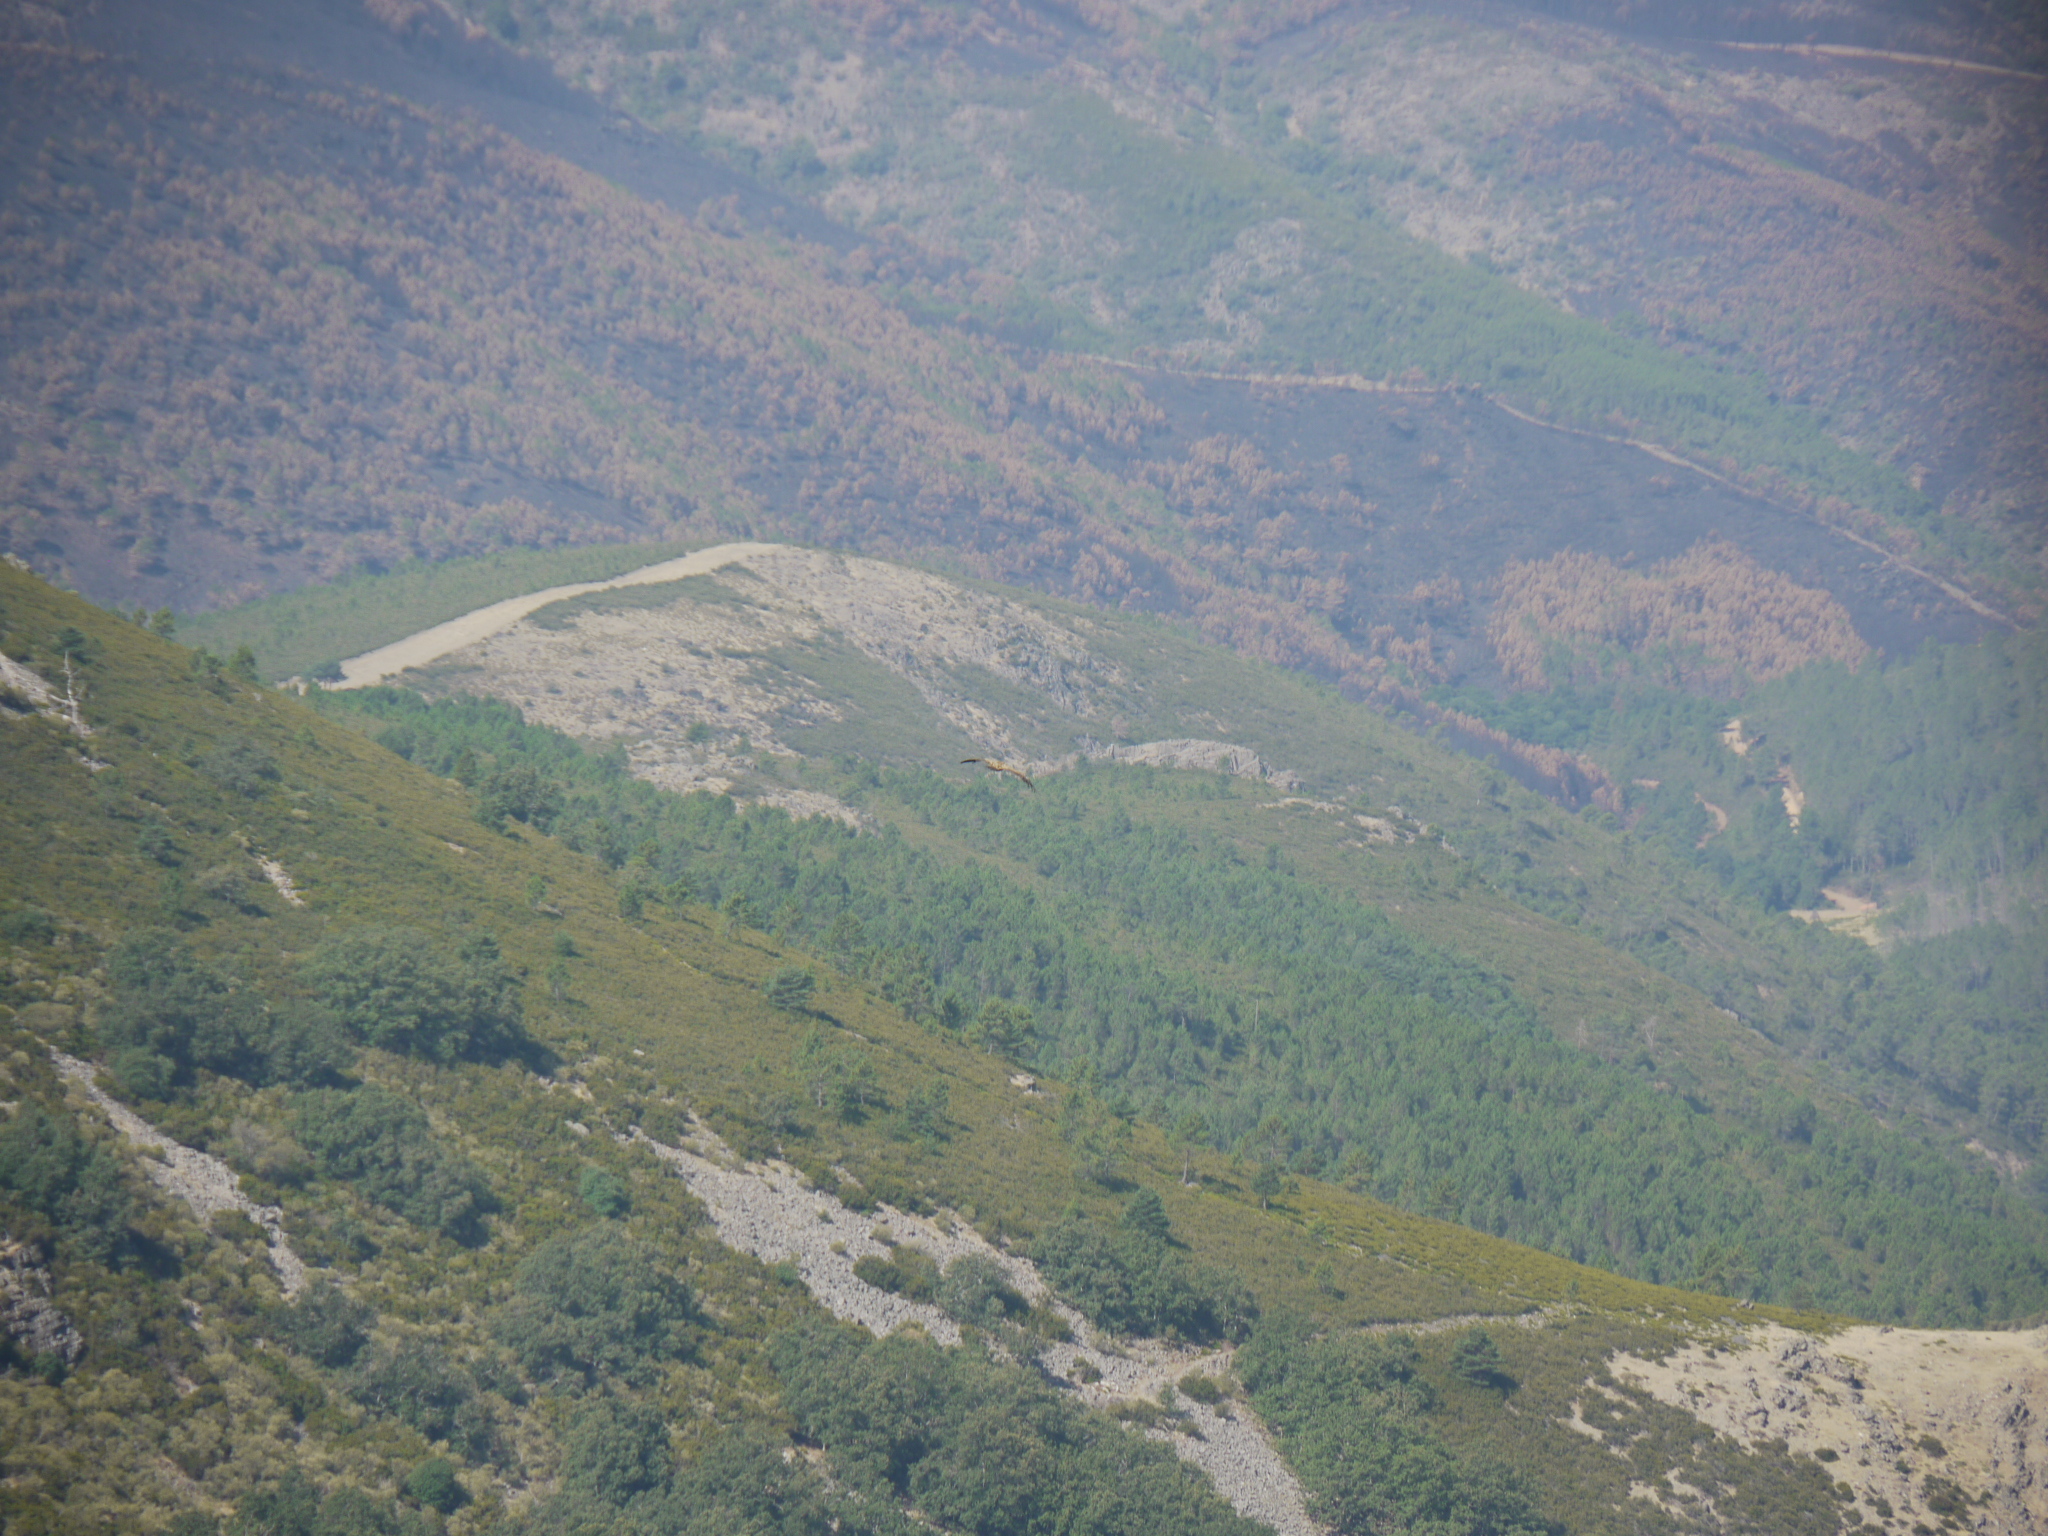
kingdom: Animalia
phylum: Chordata
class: Aves
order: Accipitriformes
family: Accipitridae
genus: Gyps
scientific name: Gyps fulvus
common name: Griffon vulture
